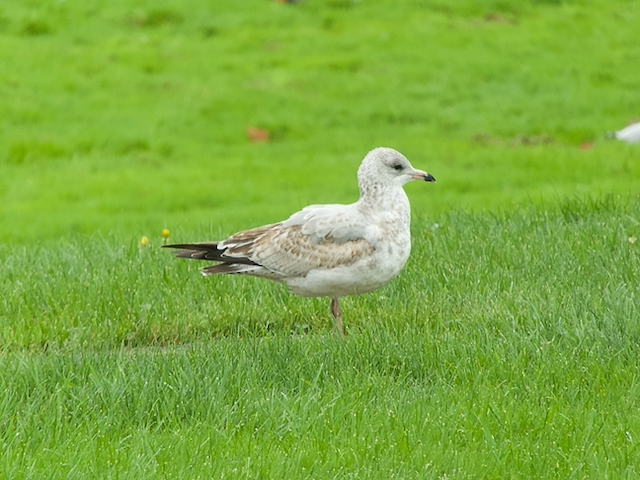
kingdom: Animalia
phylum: Chordata
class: Aves
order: Charadriiformes
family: Laridae
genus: Larus
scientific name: Larus delawarensis
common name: Ring-billed gull
